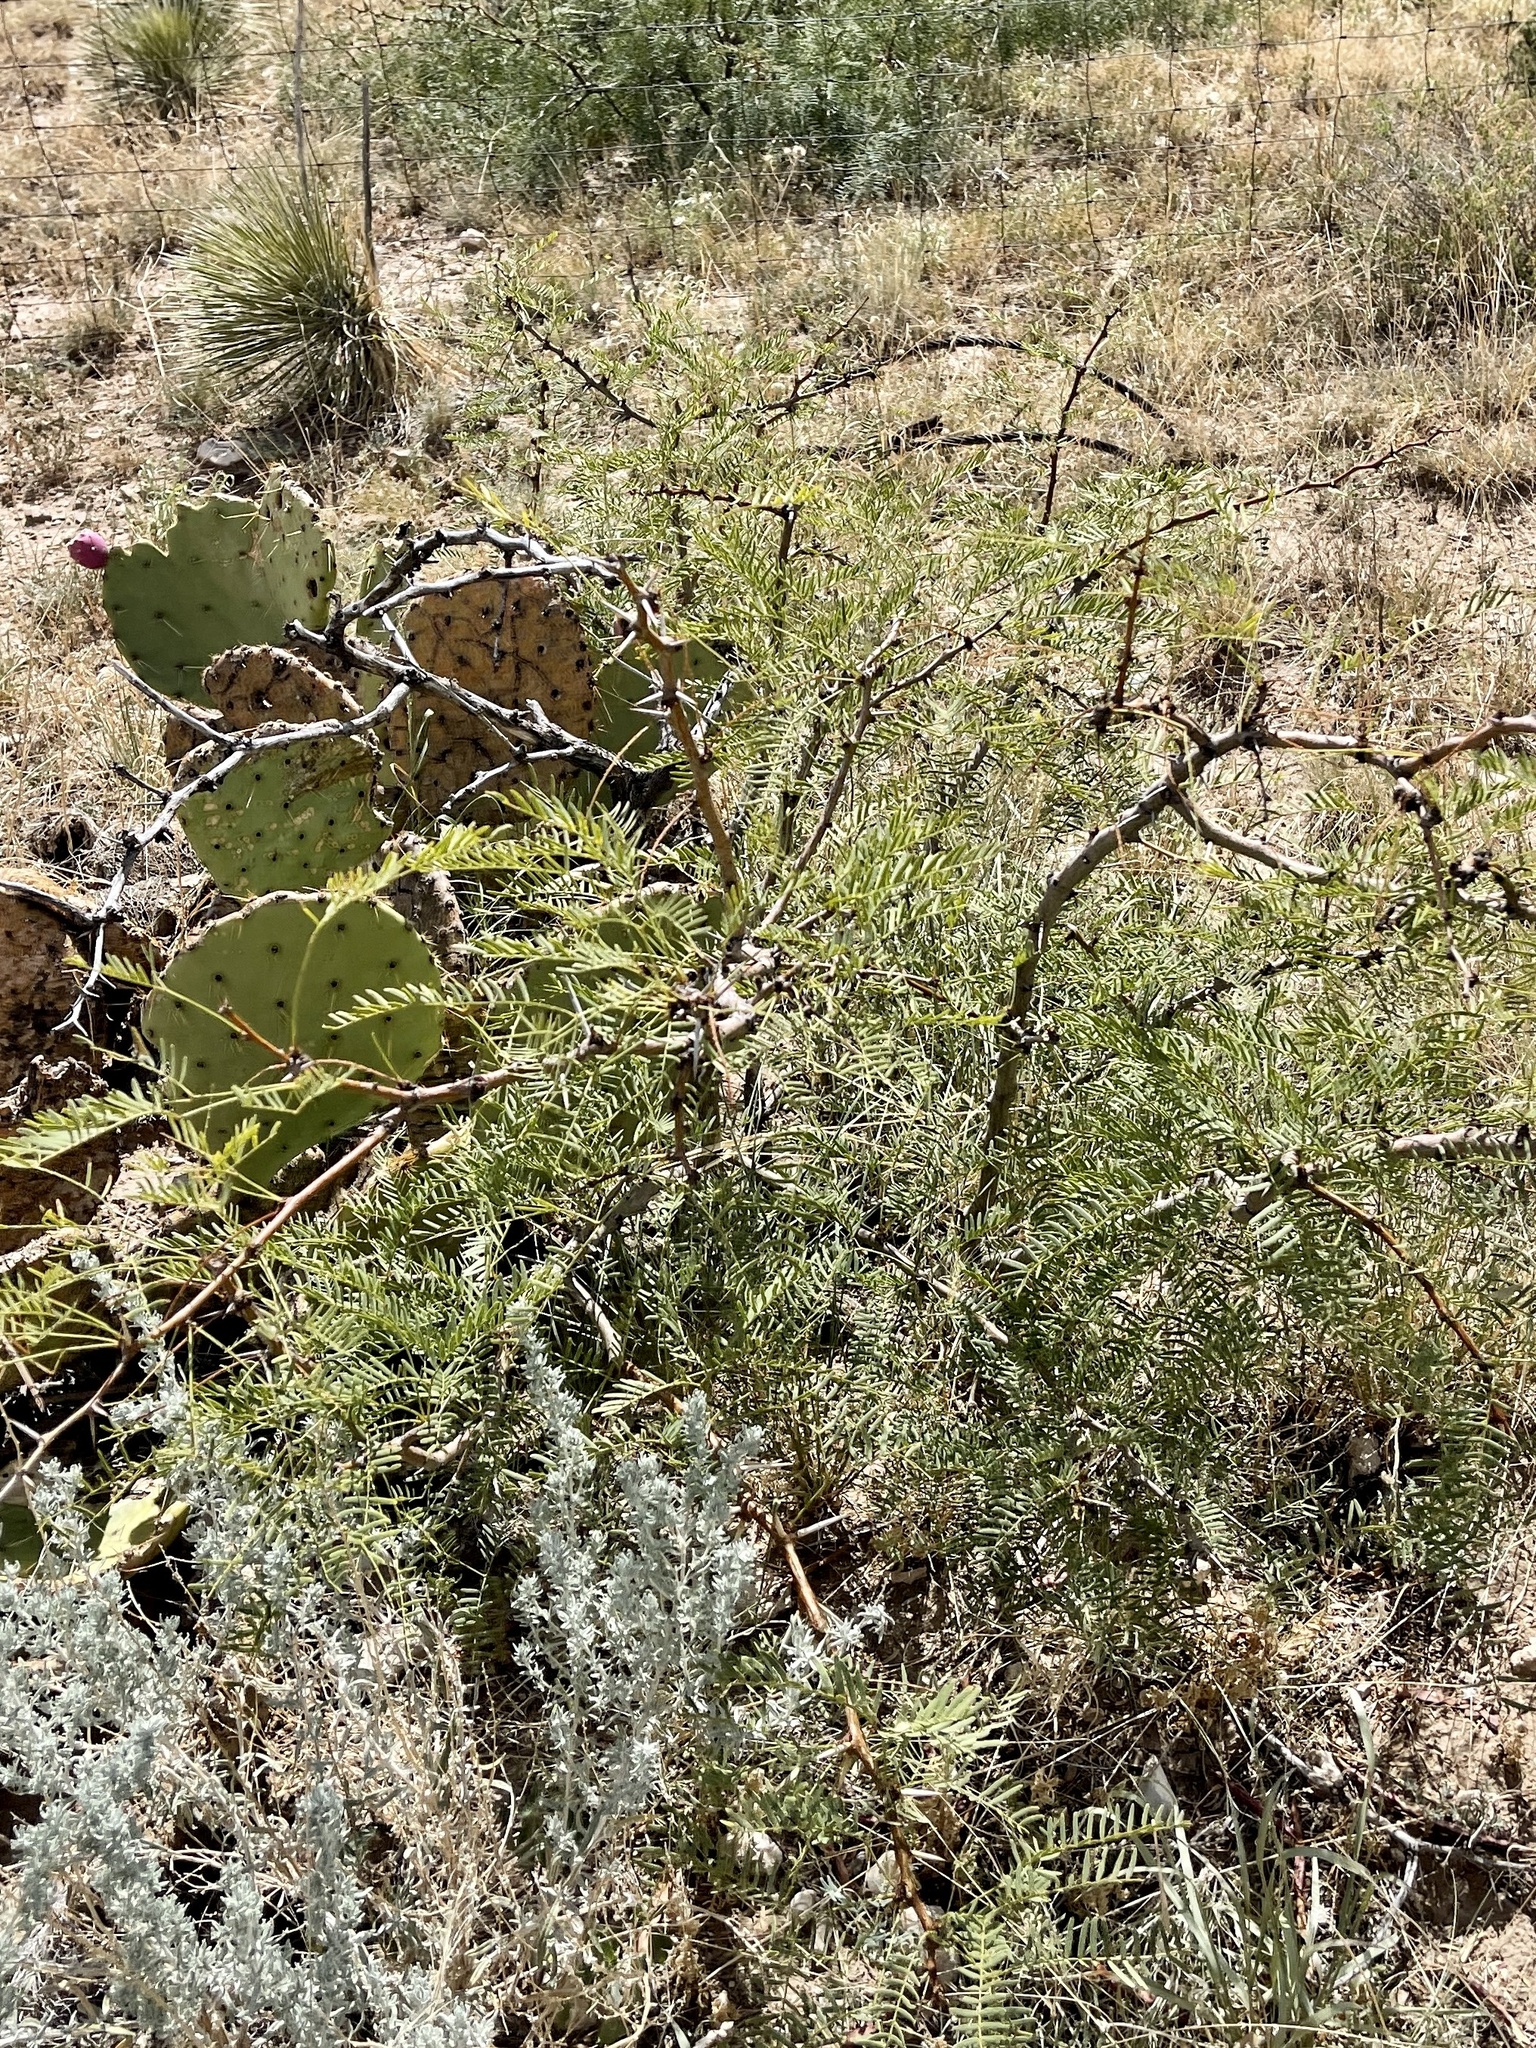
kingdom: Plantae
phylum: Tracheophyta
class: Magnoliopsida
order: Fabales
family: Fabaceae
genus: Prosopis
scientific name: Prosopis glandulosa
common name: Honey mesquite
